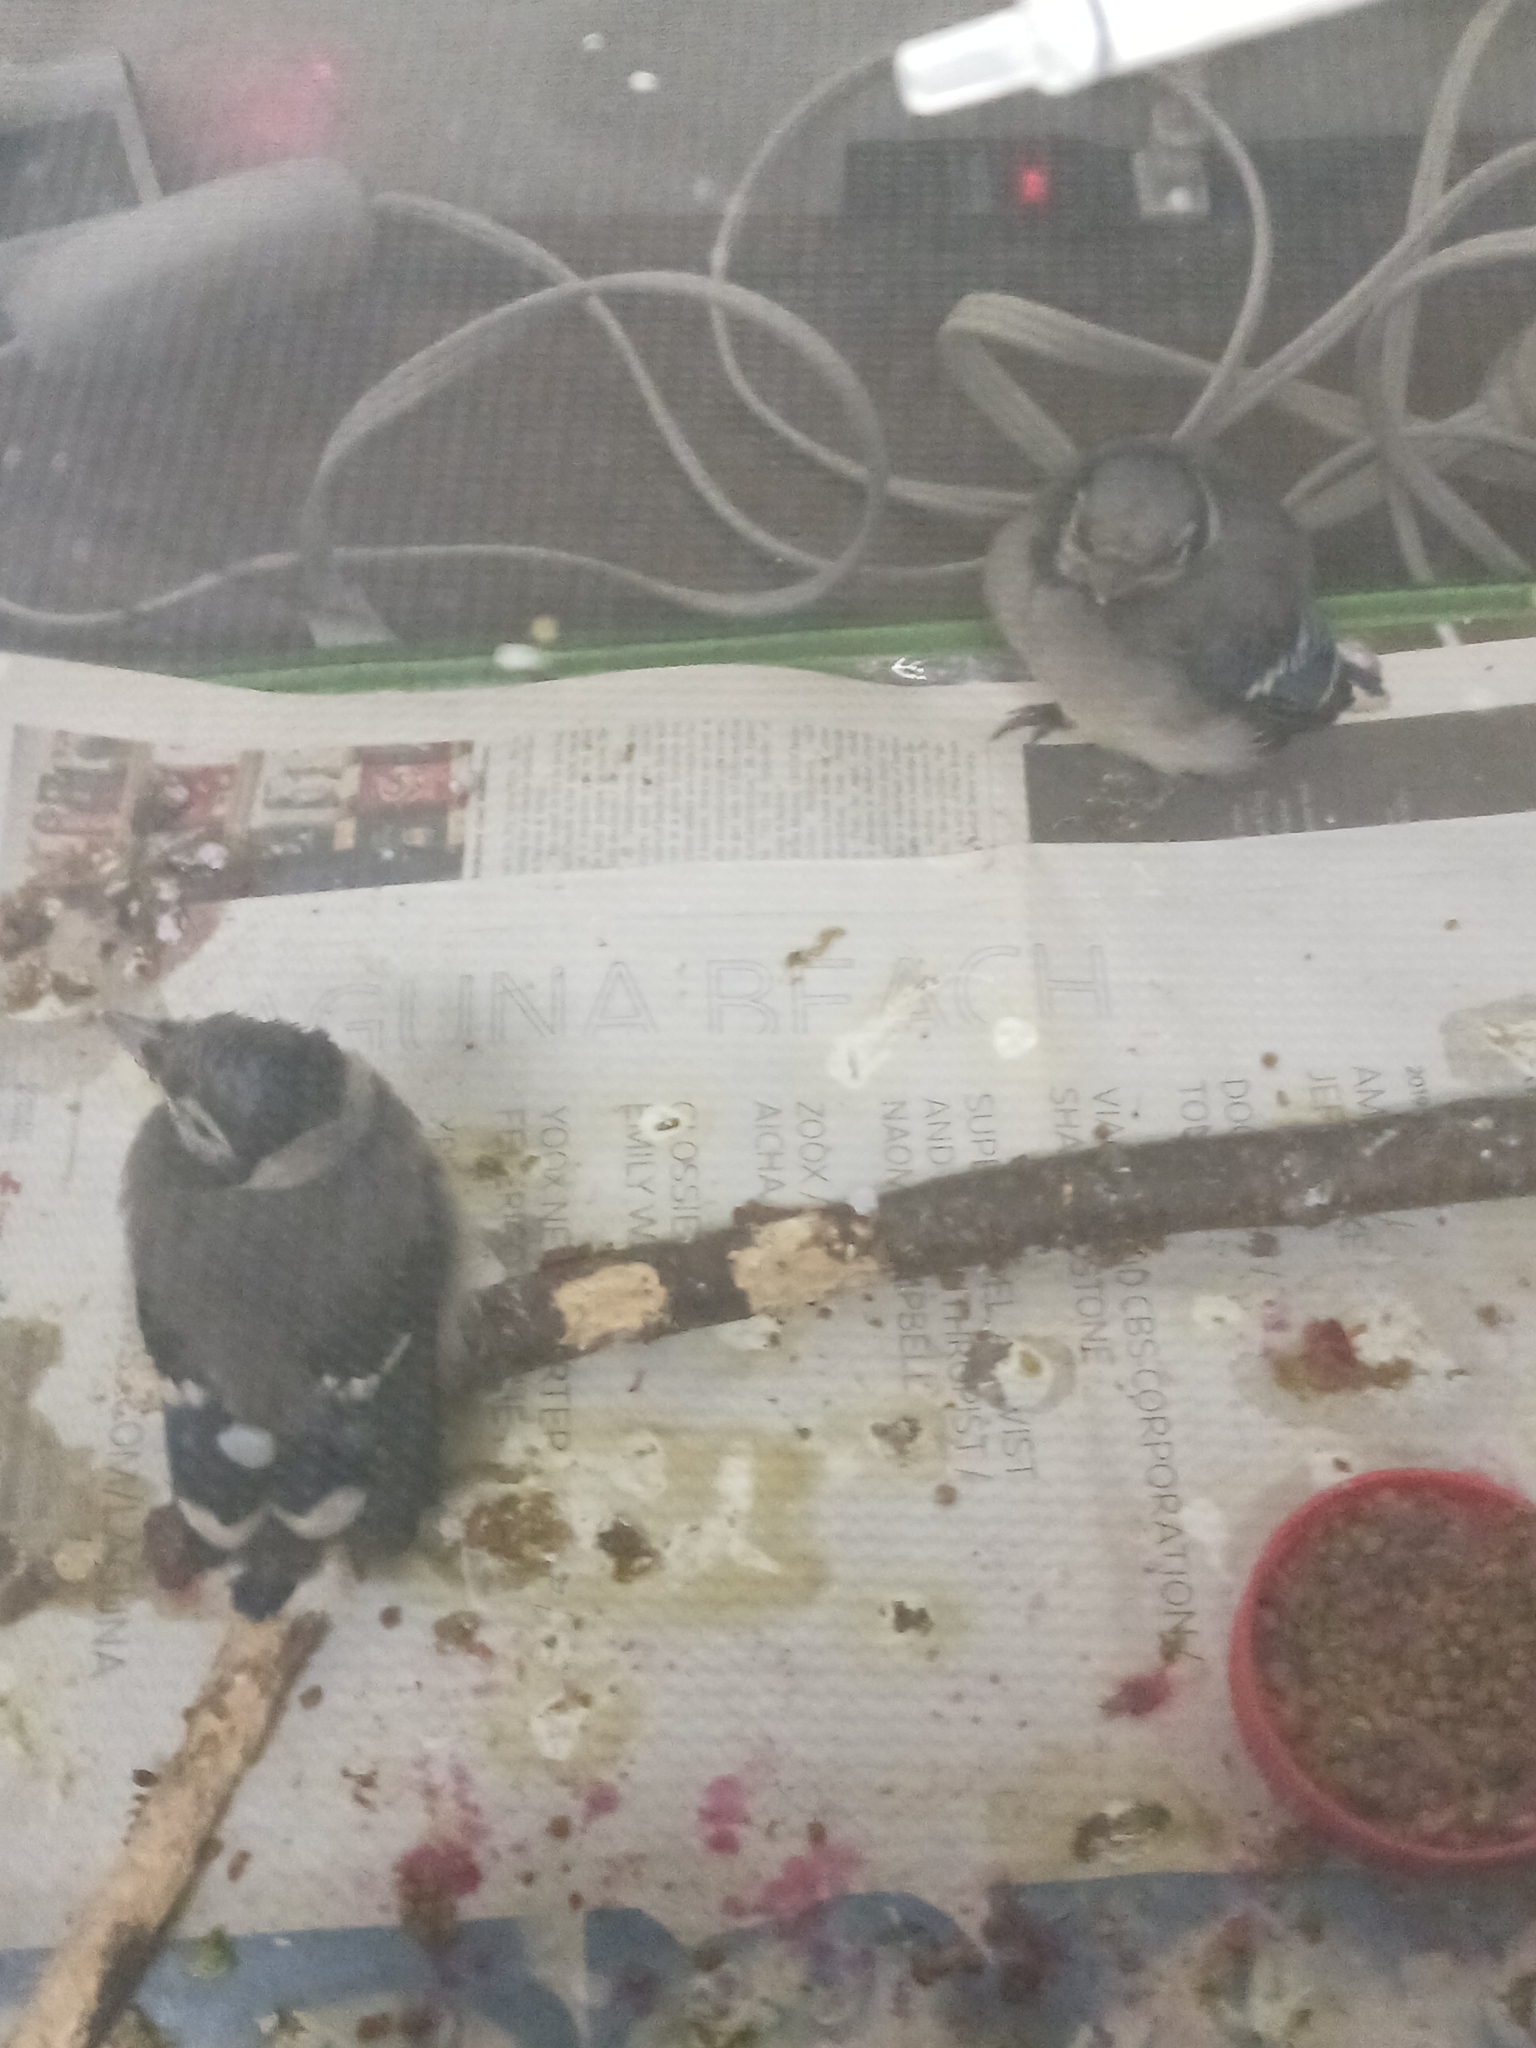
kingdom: Animalia
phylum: Chordata
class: Aves
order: Passeriformes
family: Corvidae
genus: Cyanocitta
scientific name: Cyanocitta cristata
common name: Blue jay
